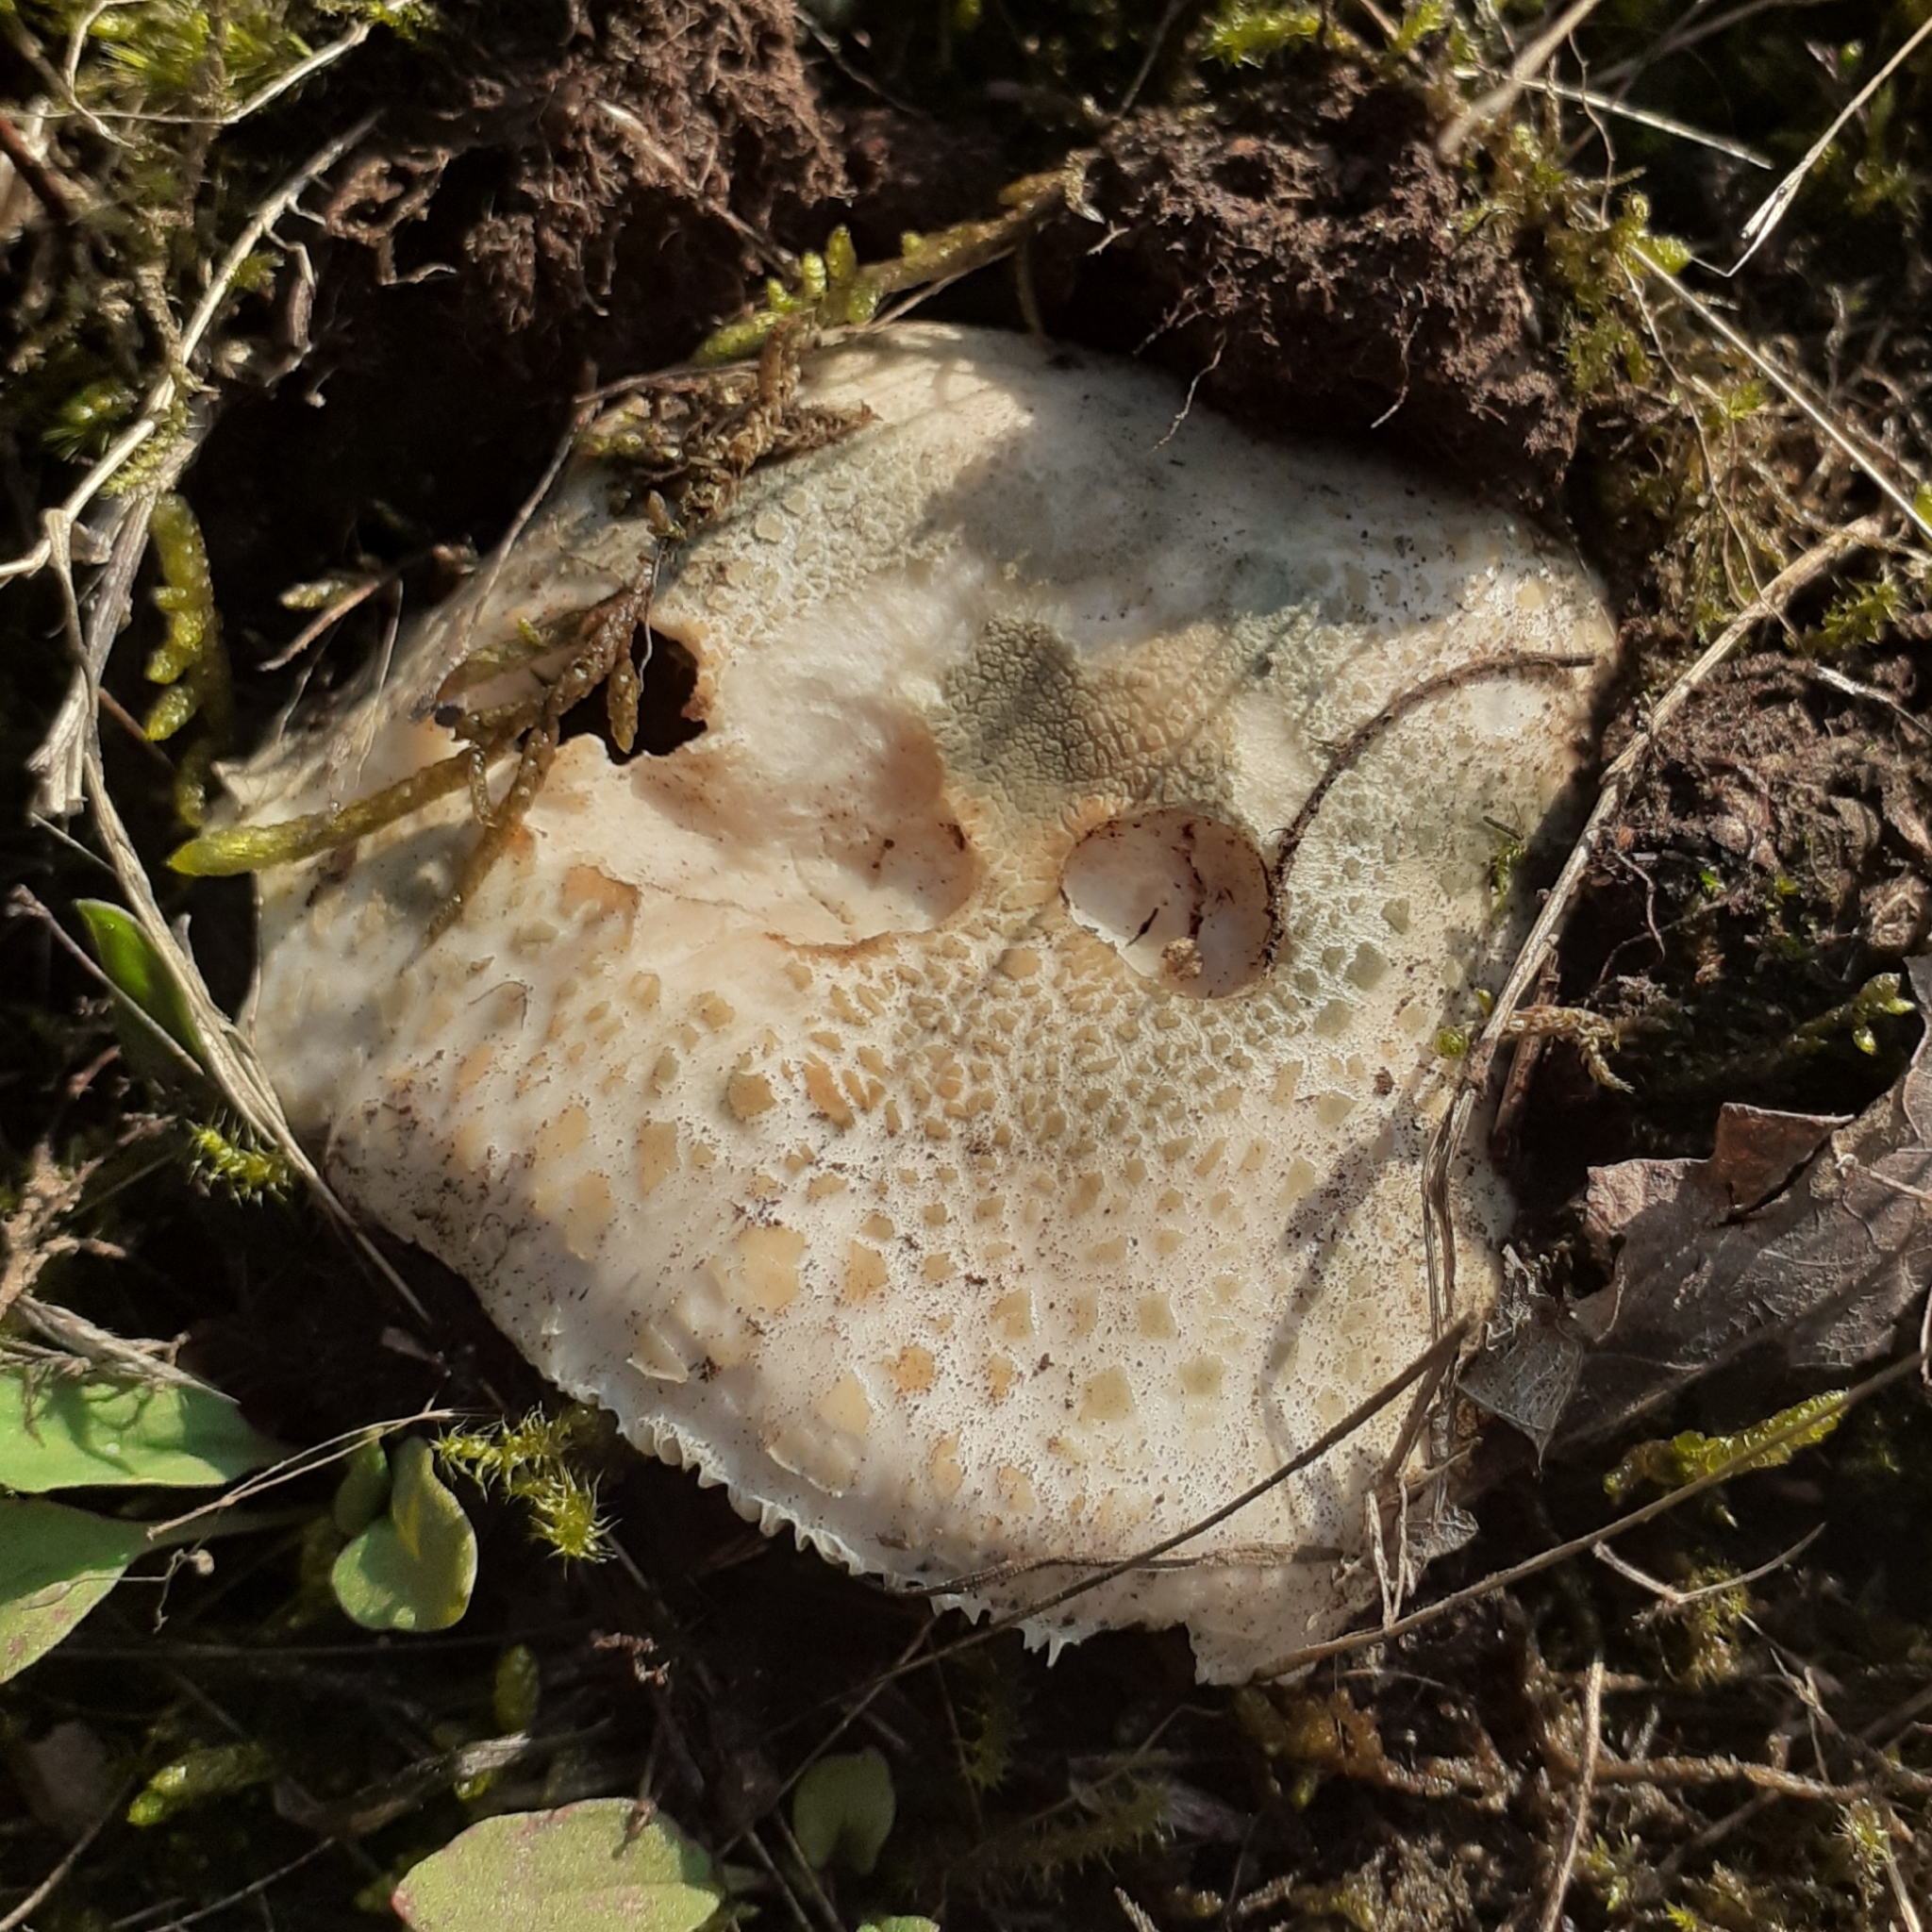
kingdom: Fungi
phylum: Basidiomycota
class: Agaricomycetes
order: Russulales
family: Russulaceae
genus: Russula
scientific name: Russula virescens
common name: Greencracked brittlegill
